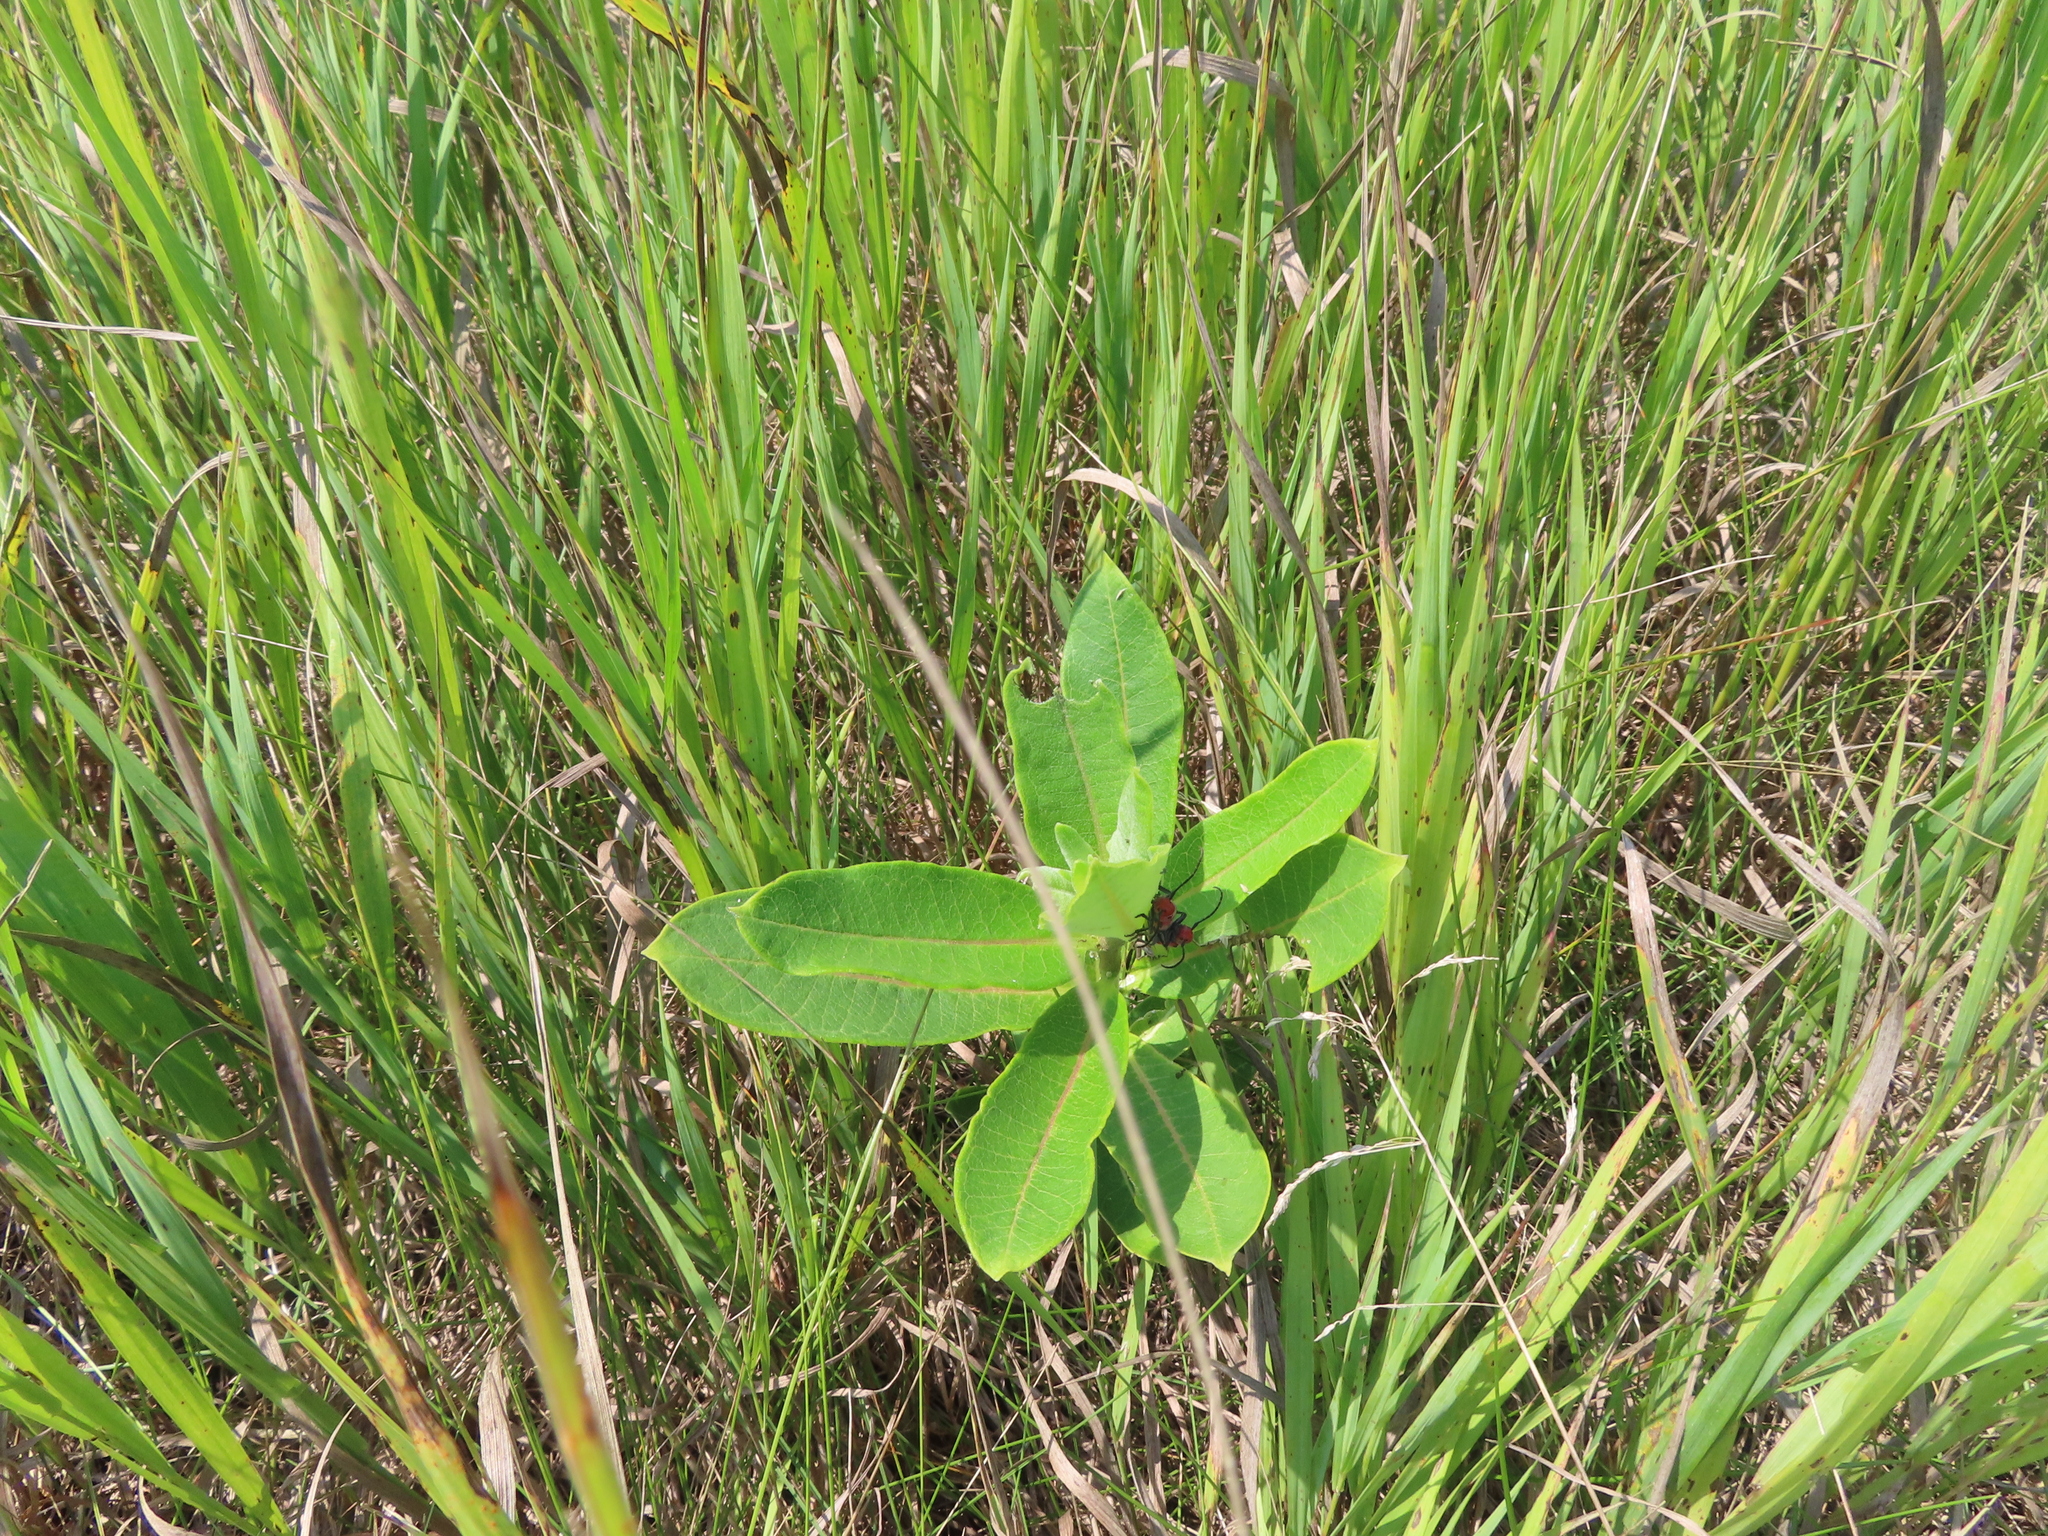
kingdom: Plantae
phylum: Tracheophyta
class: Magnoliopsida
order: Gentianales
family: Apocynaceae
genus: Asclepias
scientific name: Asclepias syriaca
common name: Common milkweed
